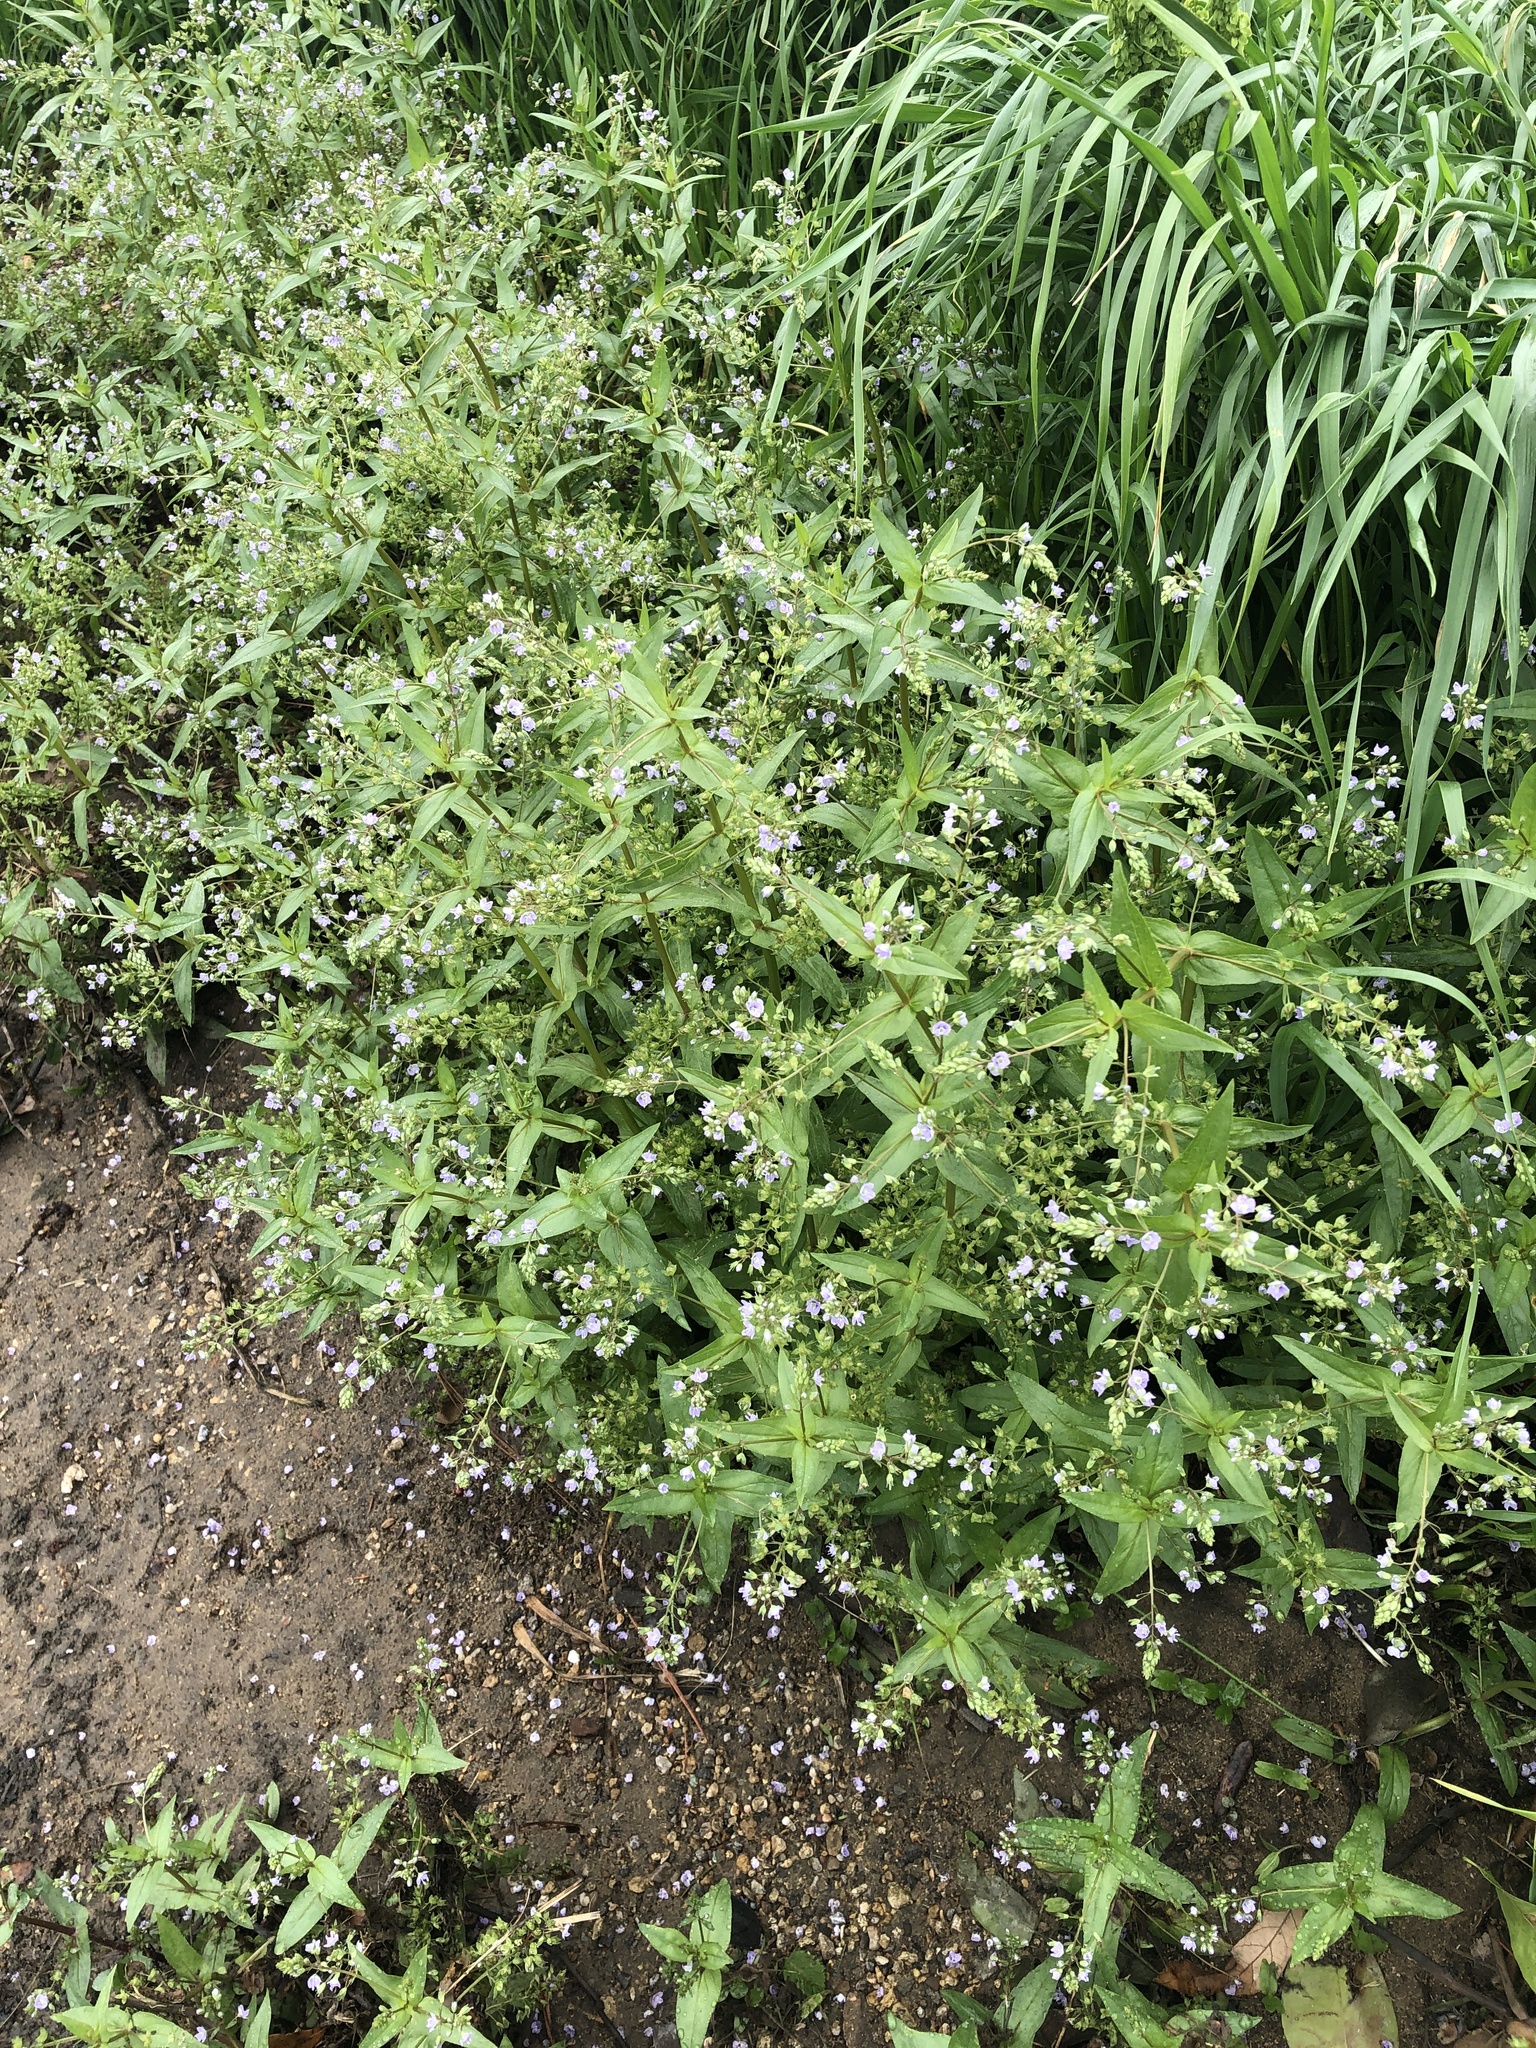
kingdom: Plantae
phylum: Tracheophyta
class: Magnoliopsida
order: Lamiales
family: Plantaginaceae
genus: Veronica
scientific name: Veronica anagallis-aquatica
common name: Water speedwell
